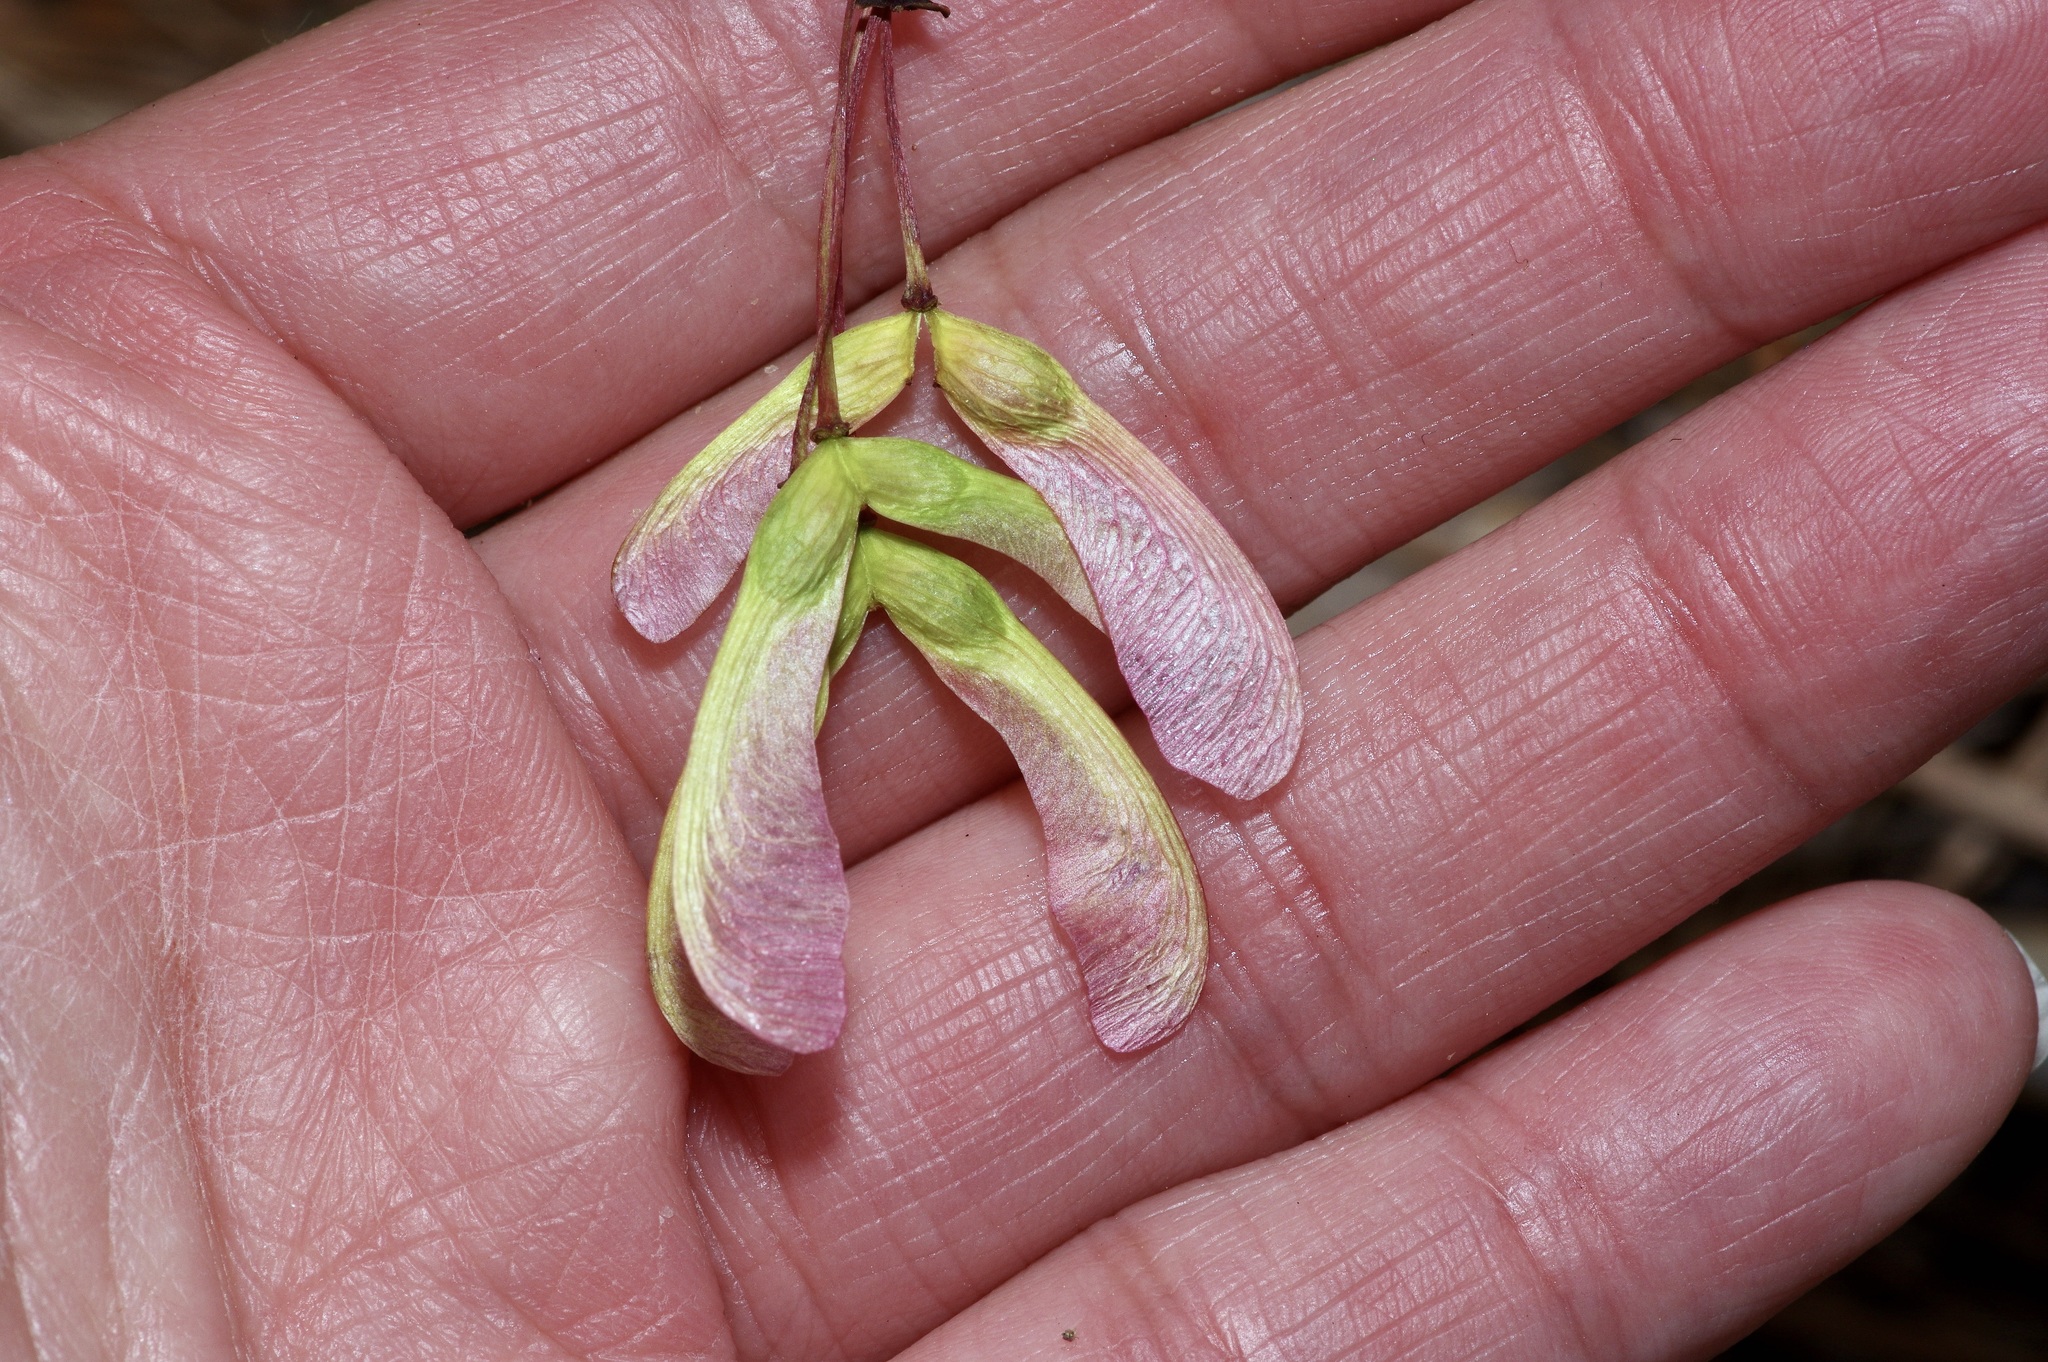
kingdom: Plantae
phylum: Tracheophyta
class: Magnoliopsida
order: Sapindales
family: Sapindaceae
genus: Acer
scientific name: Acer rubrum
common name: Red maple
